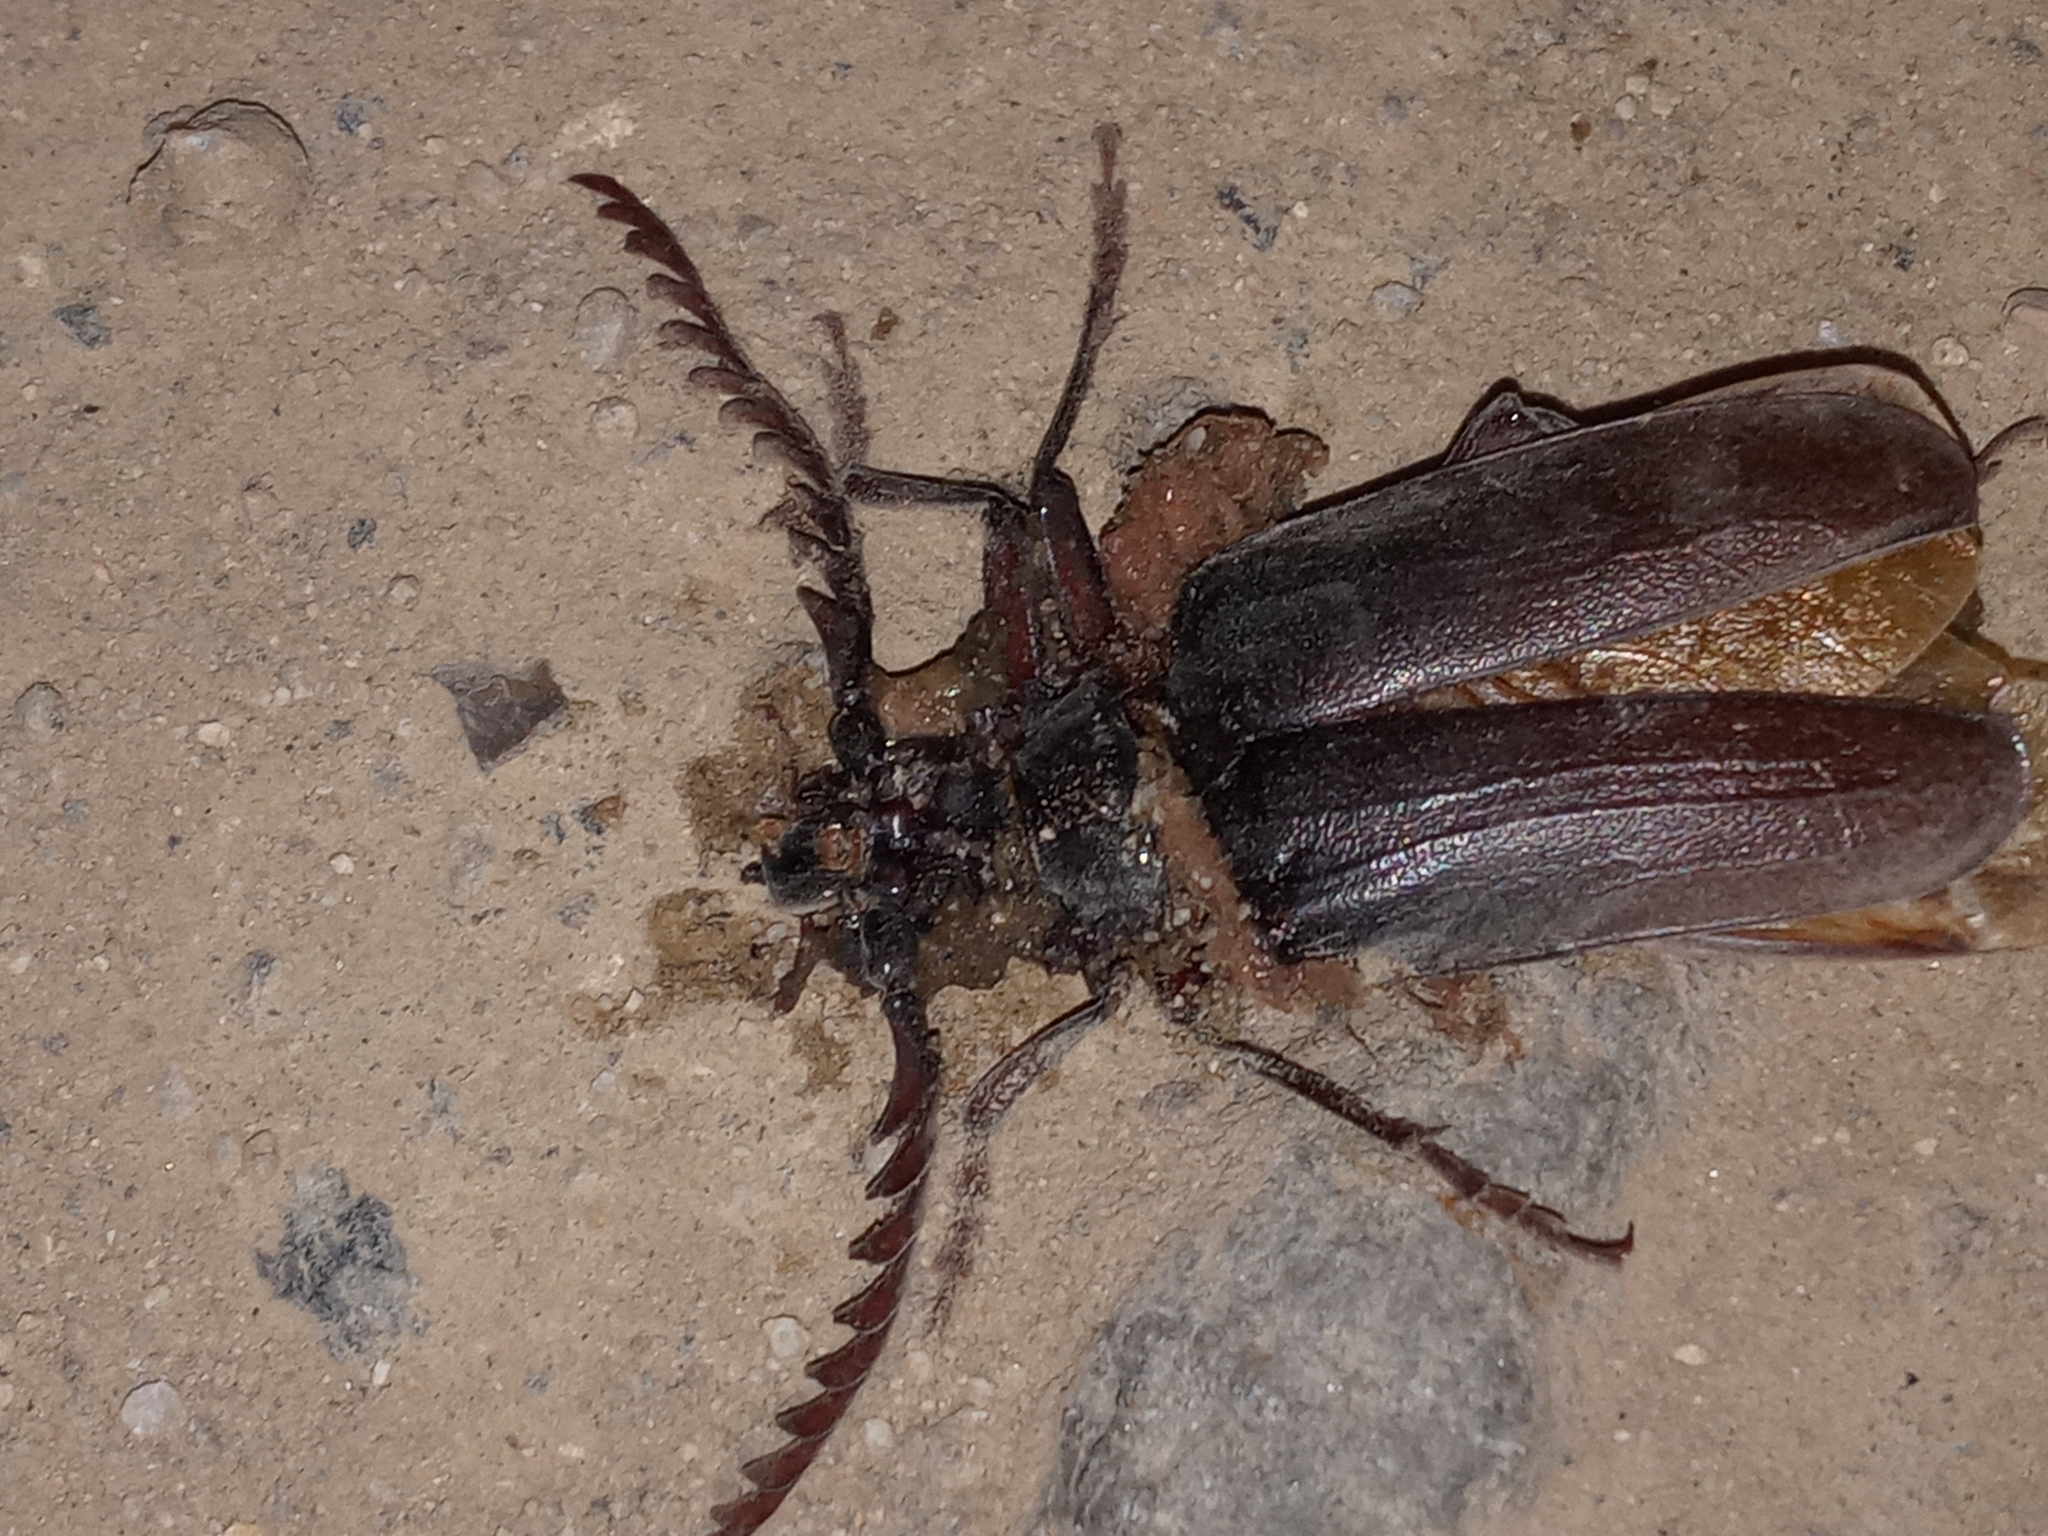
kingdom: Animalia
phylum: Arthropoda
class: Insecta
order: Coleoptera
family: Cerambycidae
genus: Prionus
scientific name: Prionus californicus
